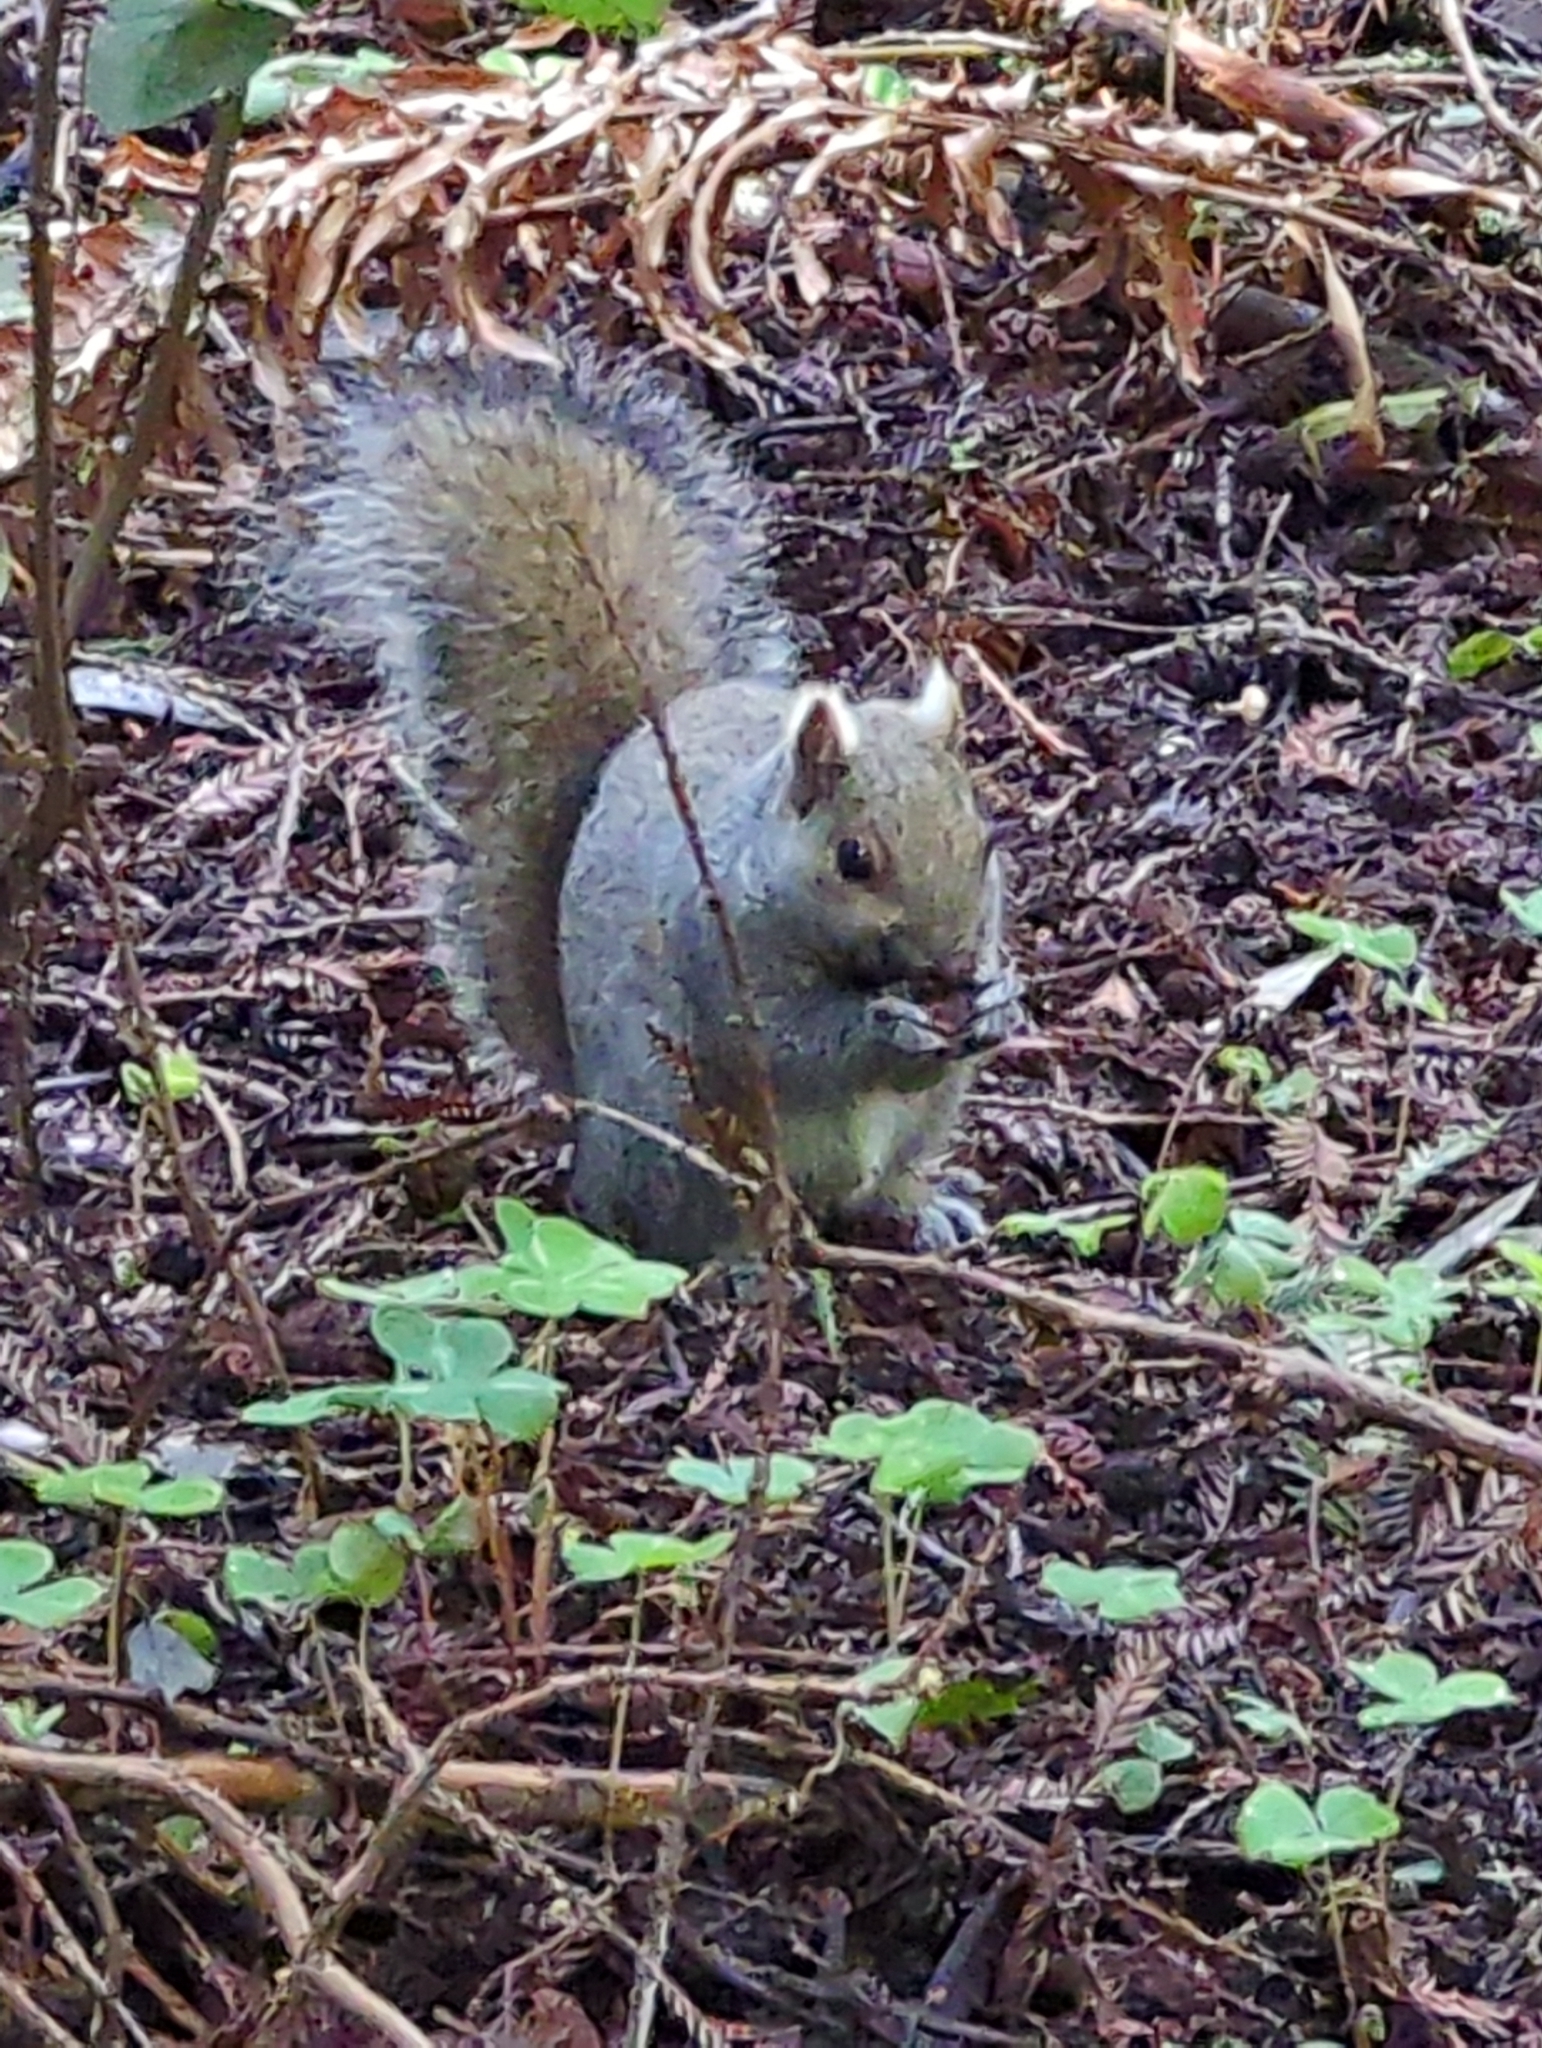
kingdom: Animalia
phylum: Chordata
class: Mammalia
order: Rodentia
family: Sciuridae
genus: Sciurus
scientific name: Sciurus carolinensis
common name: Eastern gray squirrel
